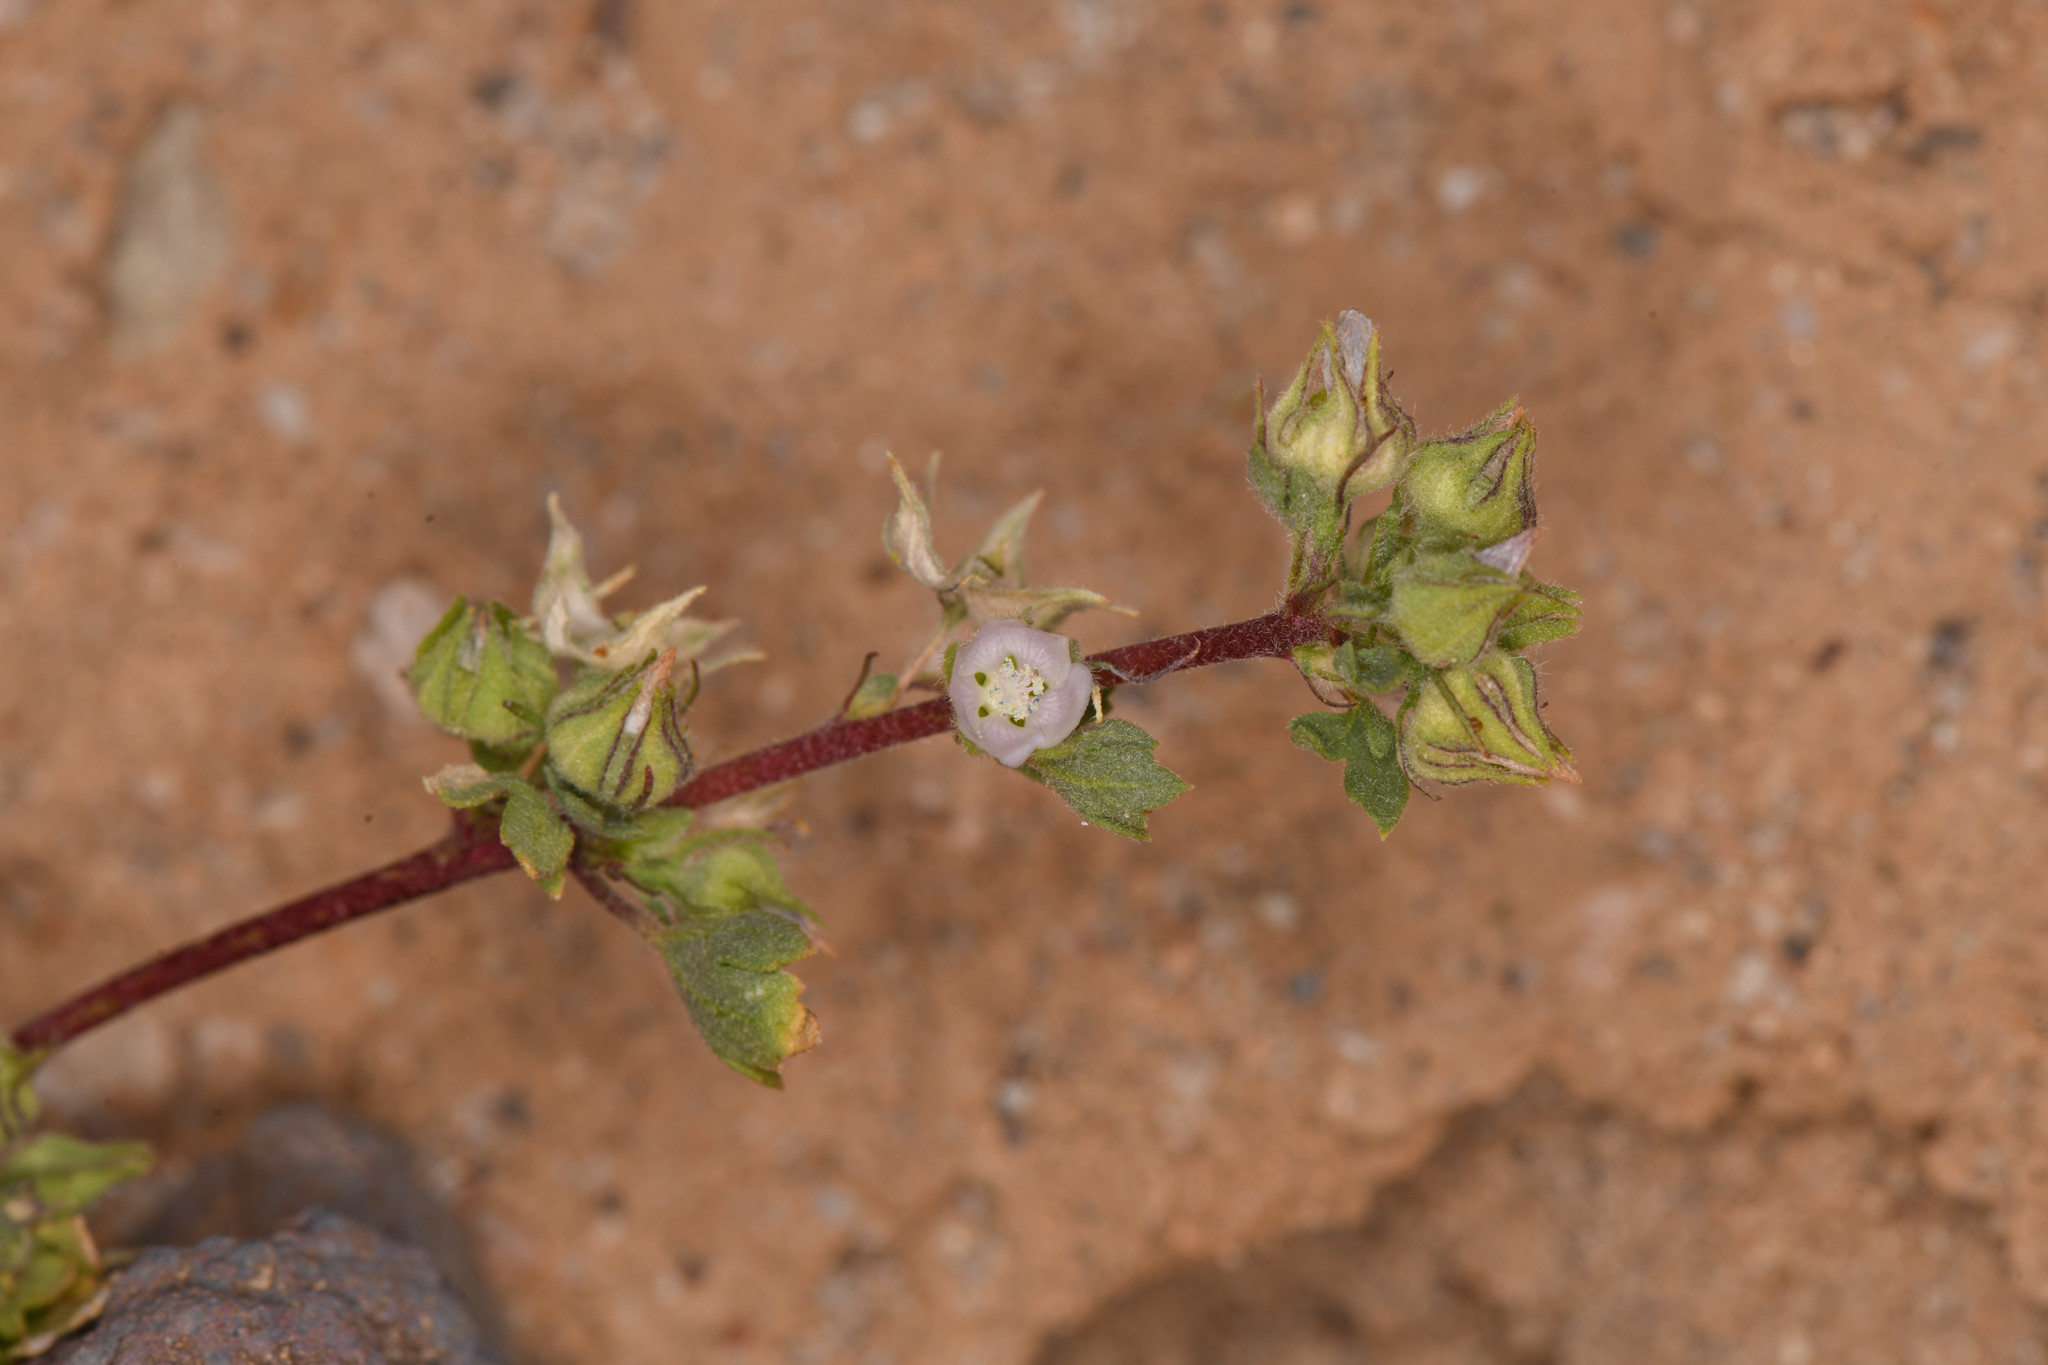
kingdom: Plantae
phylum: Tracheophyta
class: Magnoliopsida
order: Malvales
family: Malvaceae
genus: Eremalche
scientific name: Eremalche exilis
